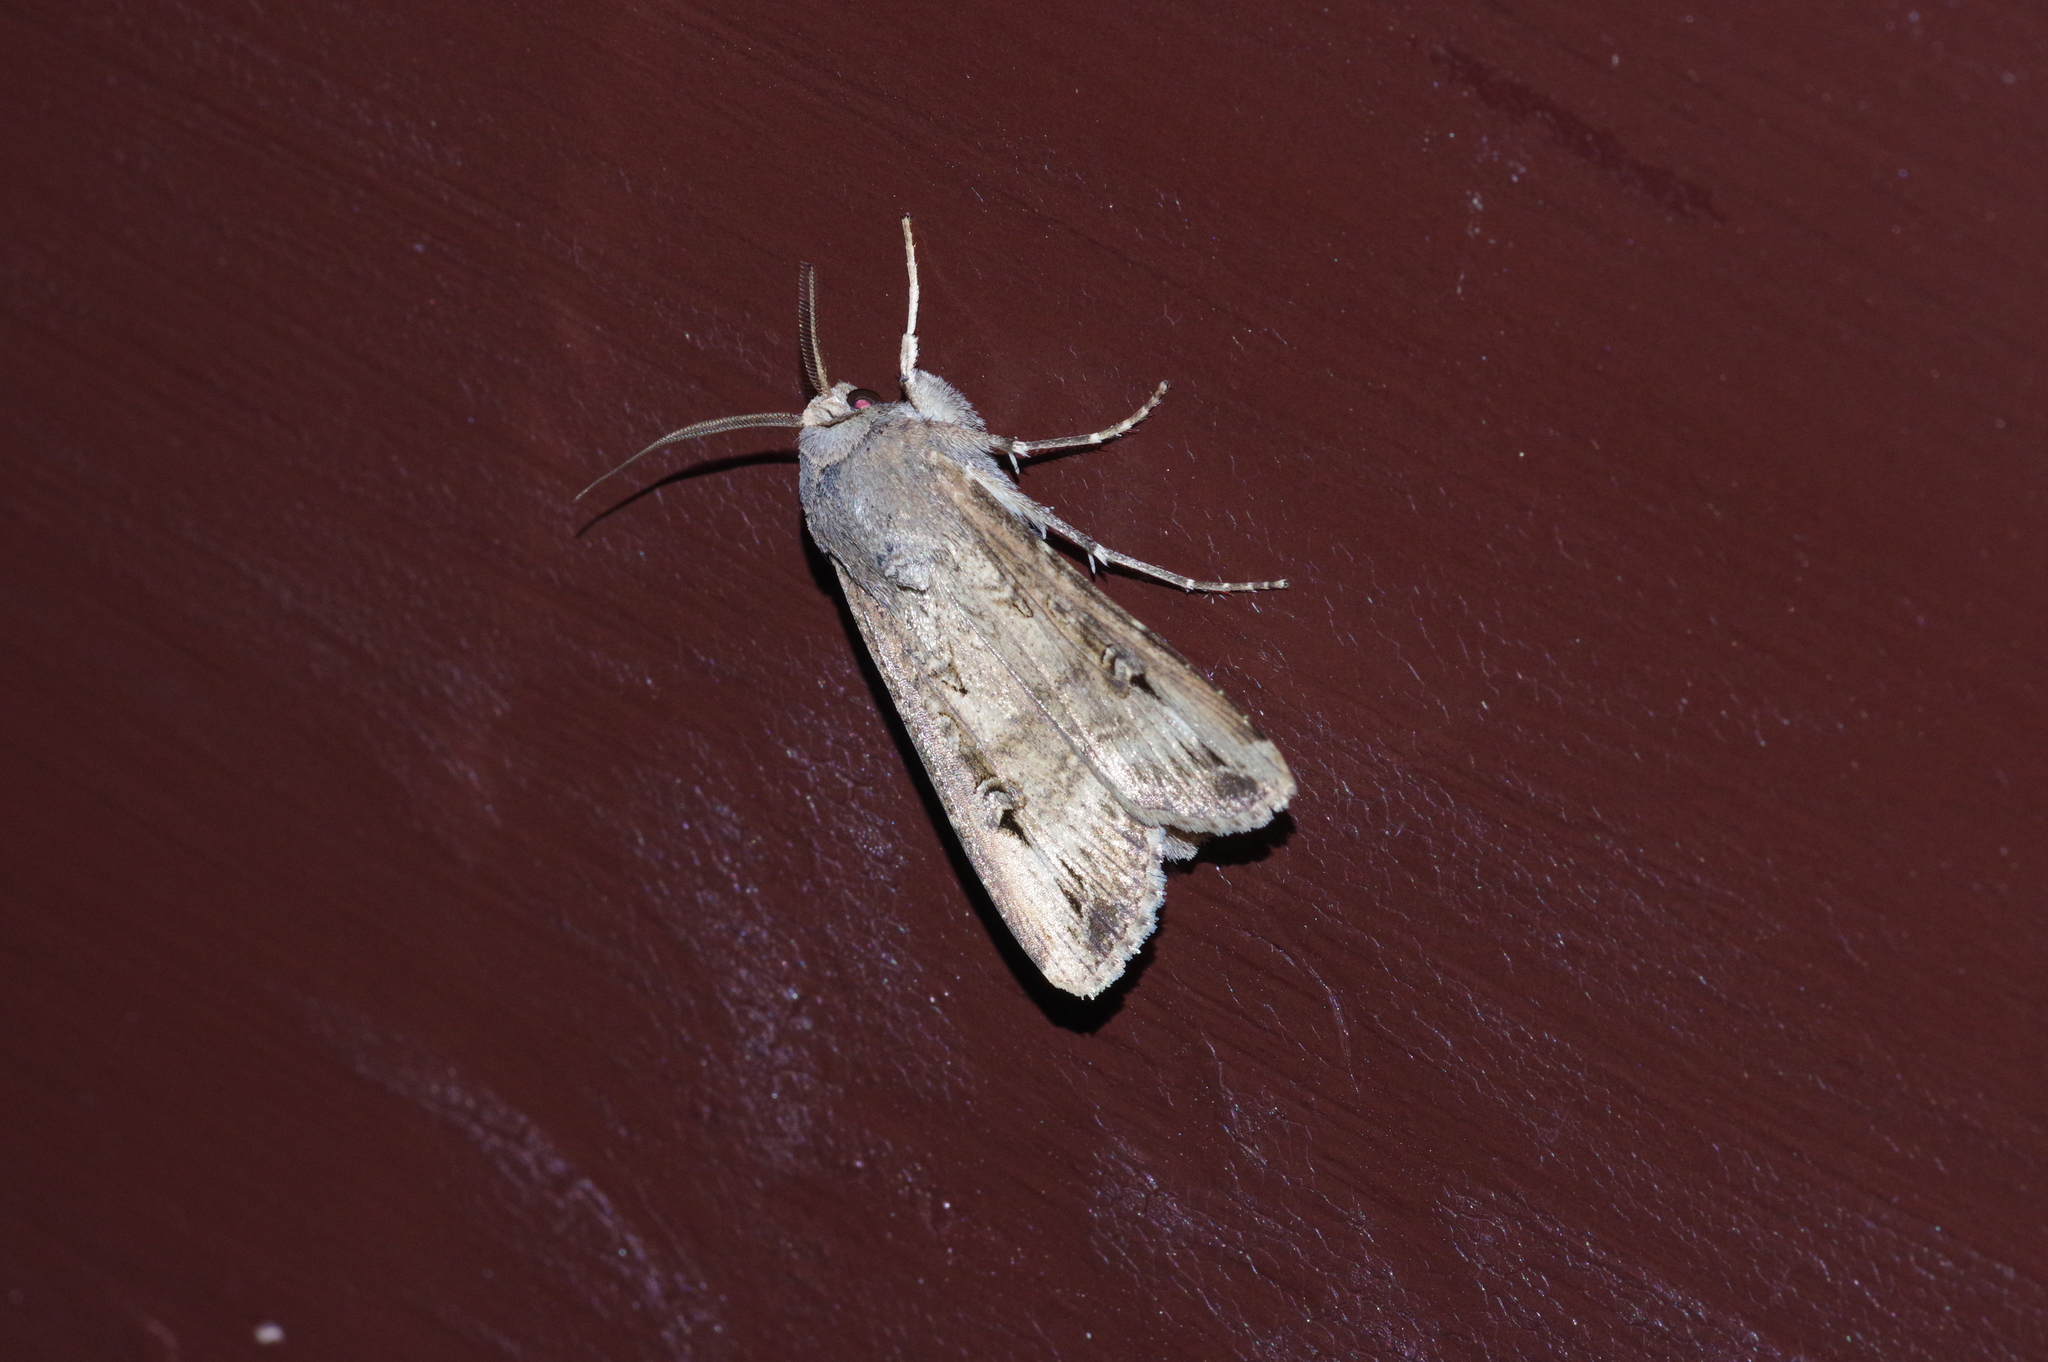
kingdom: Animalia
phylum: Arthropoda
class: Insecta
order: Lepidoptera
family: Noctuidae
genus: Agrotis
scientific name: Agrotis ipsilon
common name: Dark sword-grass
